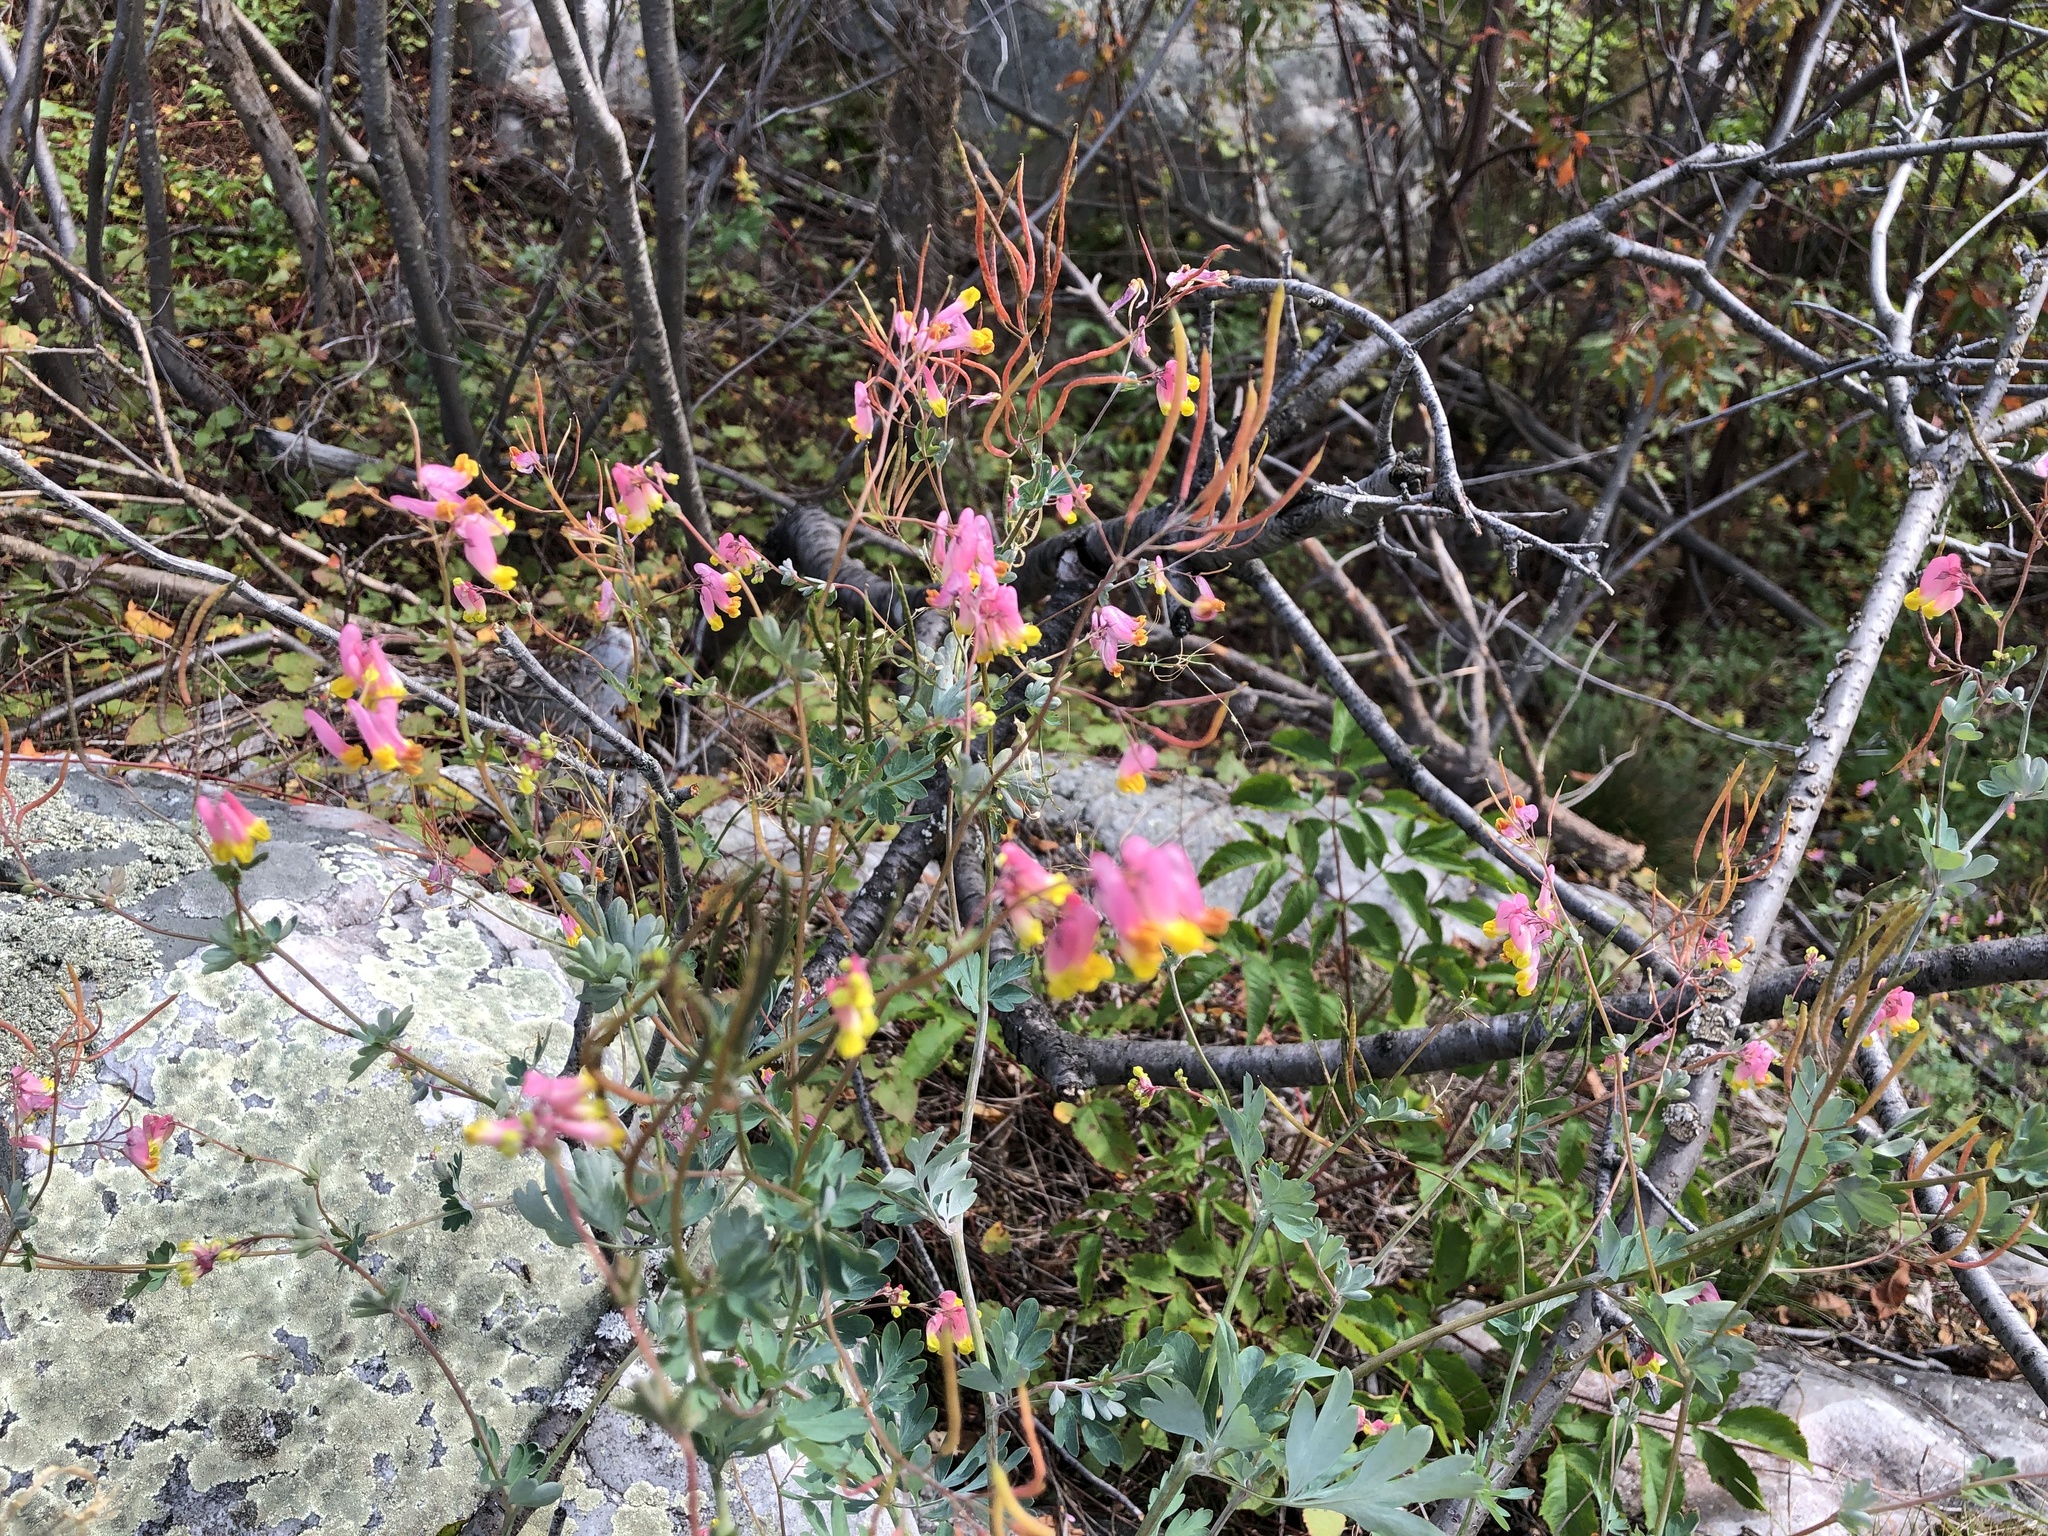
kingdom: Plantae
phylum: Tracheophyta
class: Magnoliopsida
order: Ranunculales
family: Papaveraceae
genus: Capnoides
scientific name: Capnoides sempervirens
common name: Rock harlequin
